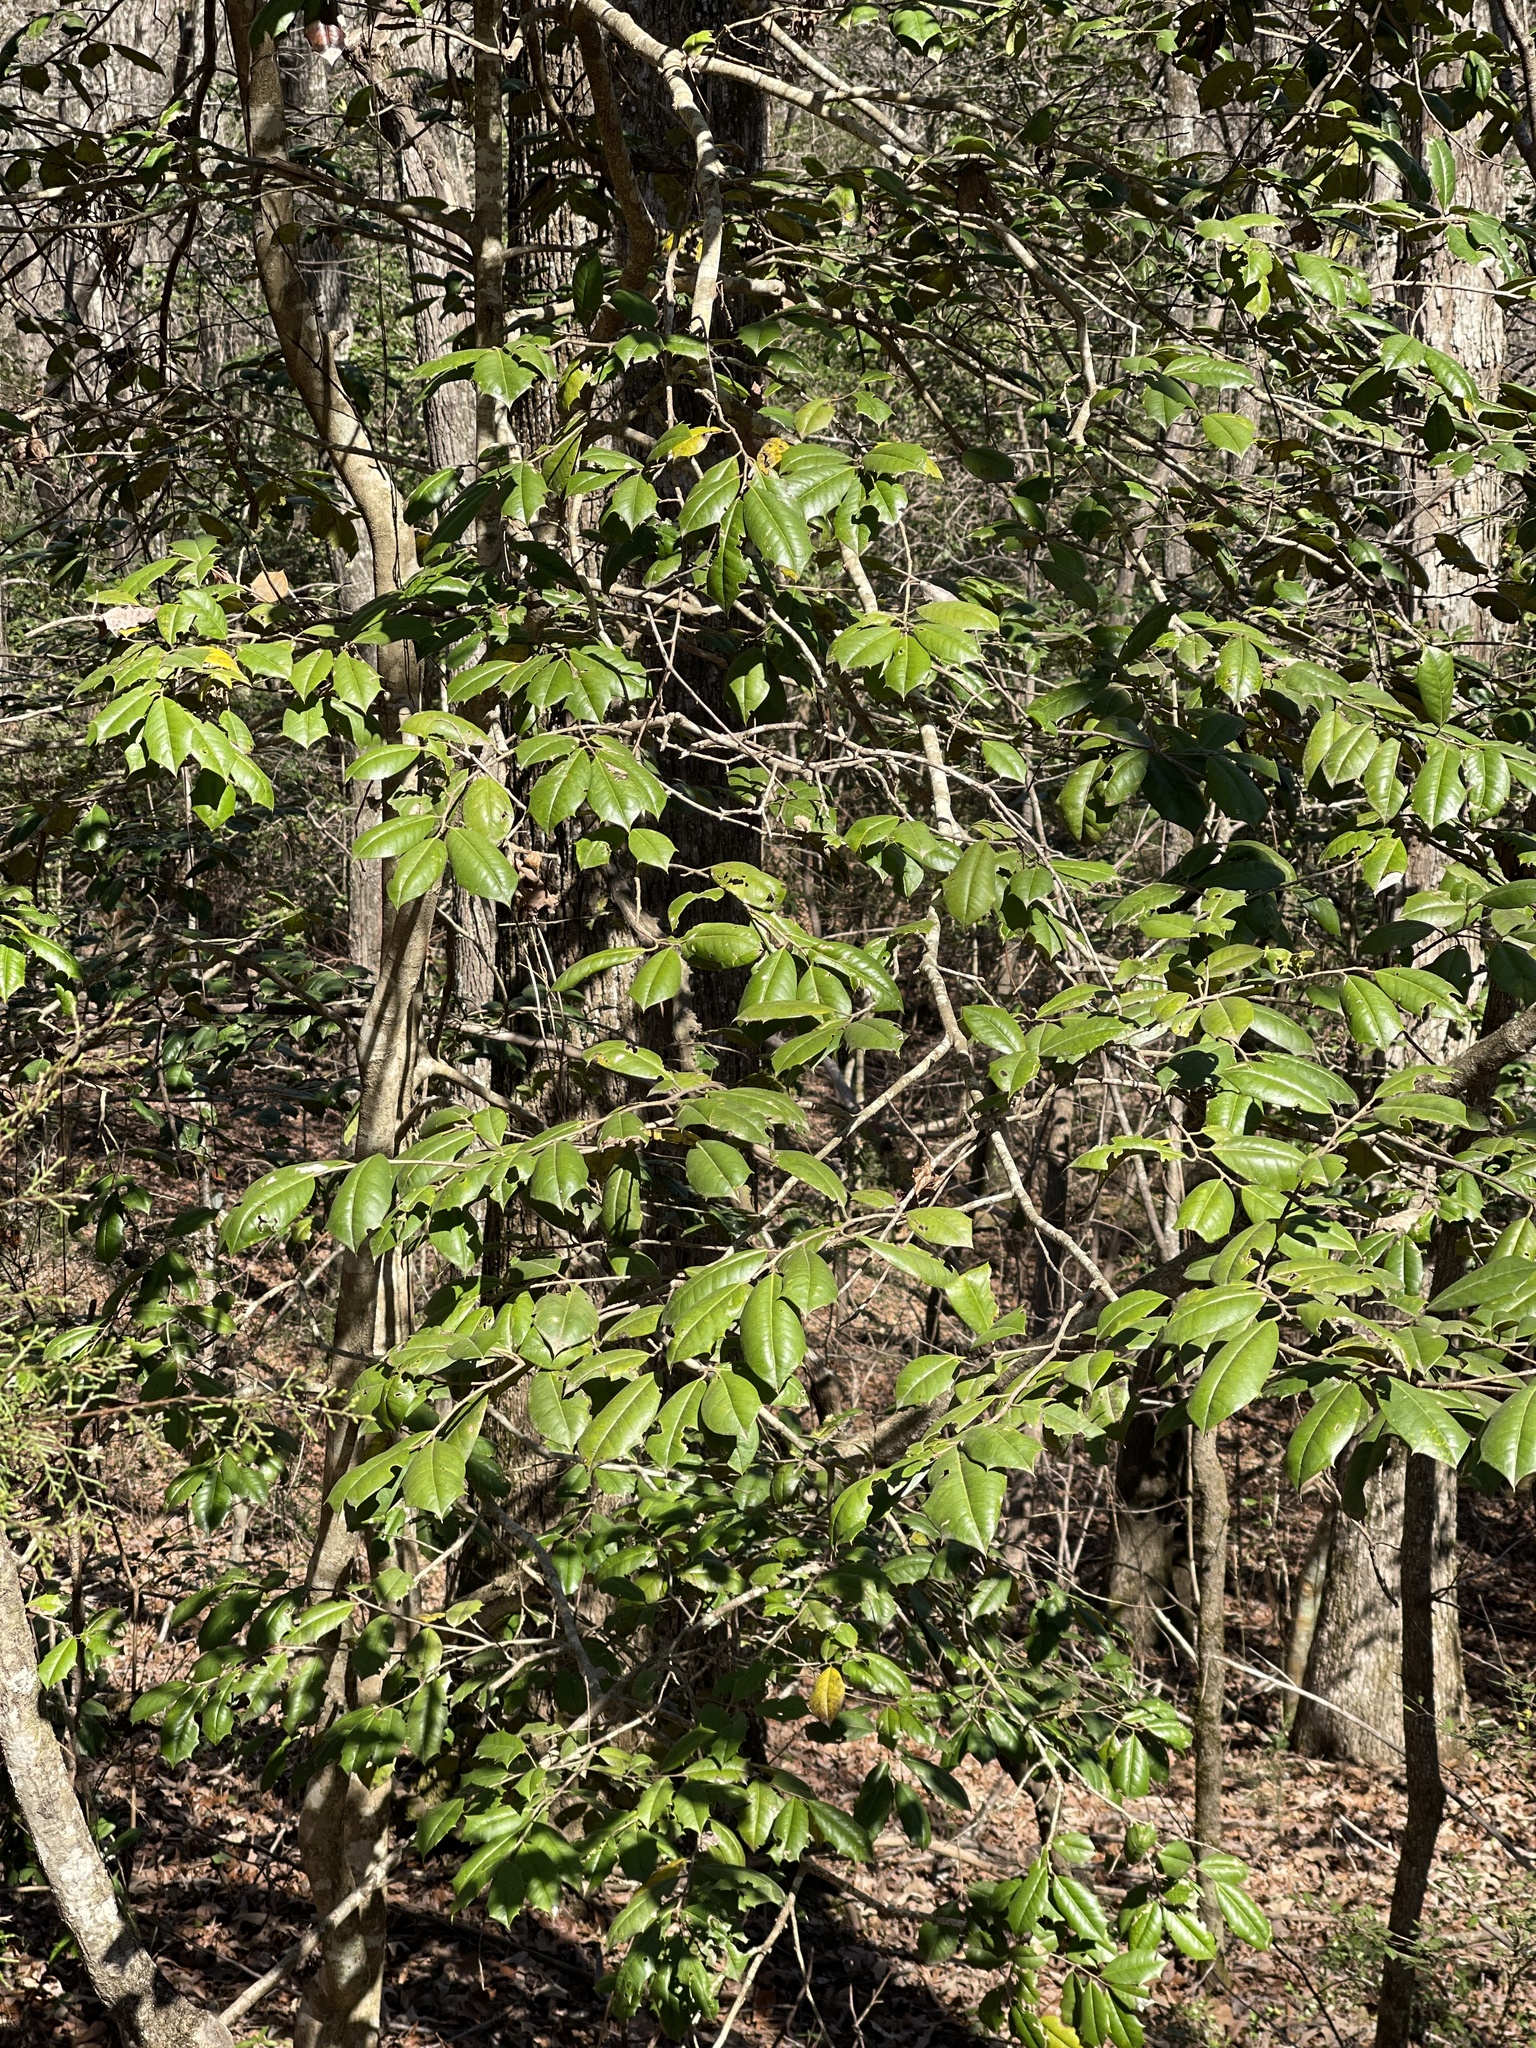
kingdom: Plantae
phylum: Tracheophyta
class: Magnoliopsida
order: Aquifoliales
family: Aquifoliaceae
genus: Ilex
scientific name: Ilex opaca
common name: American holly
